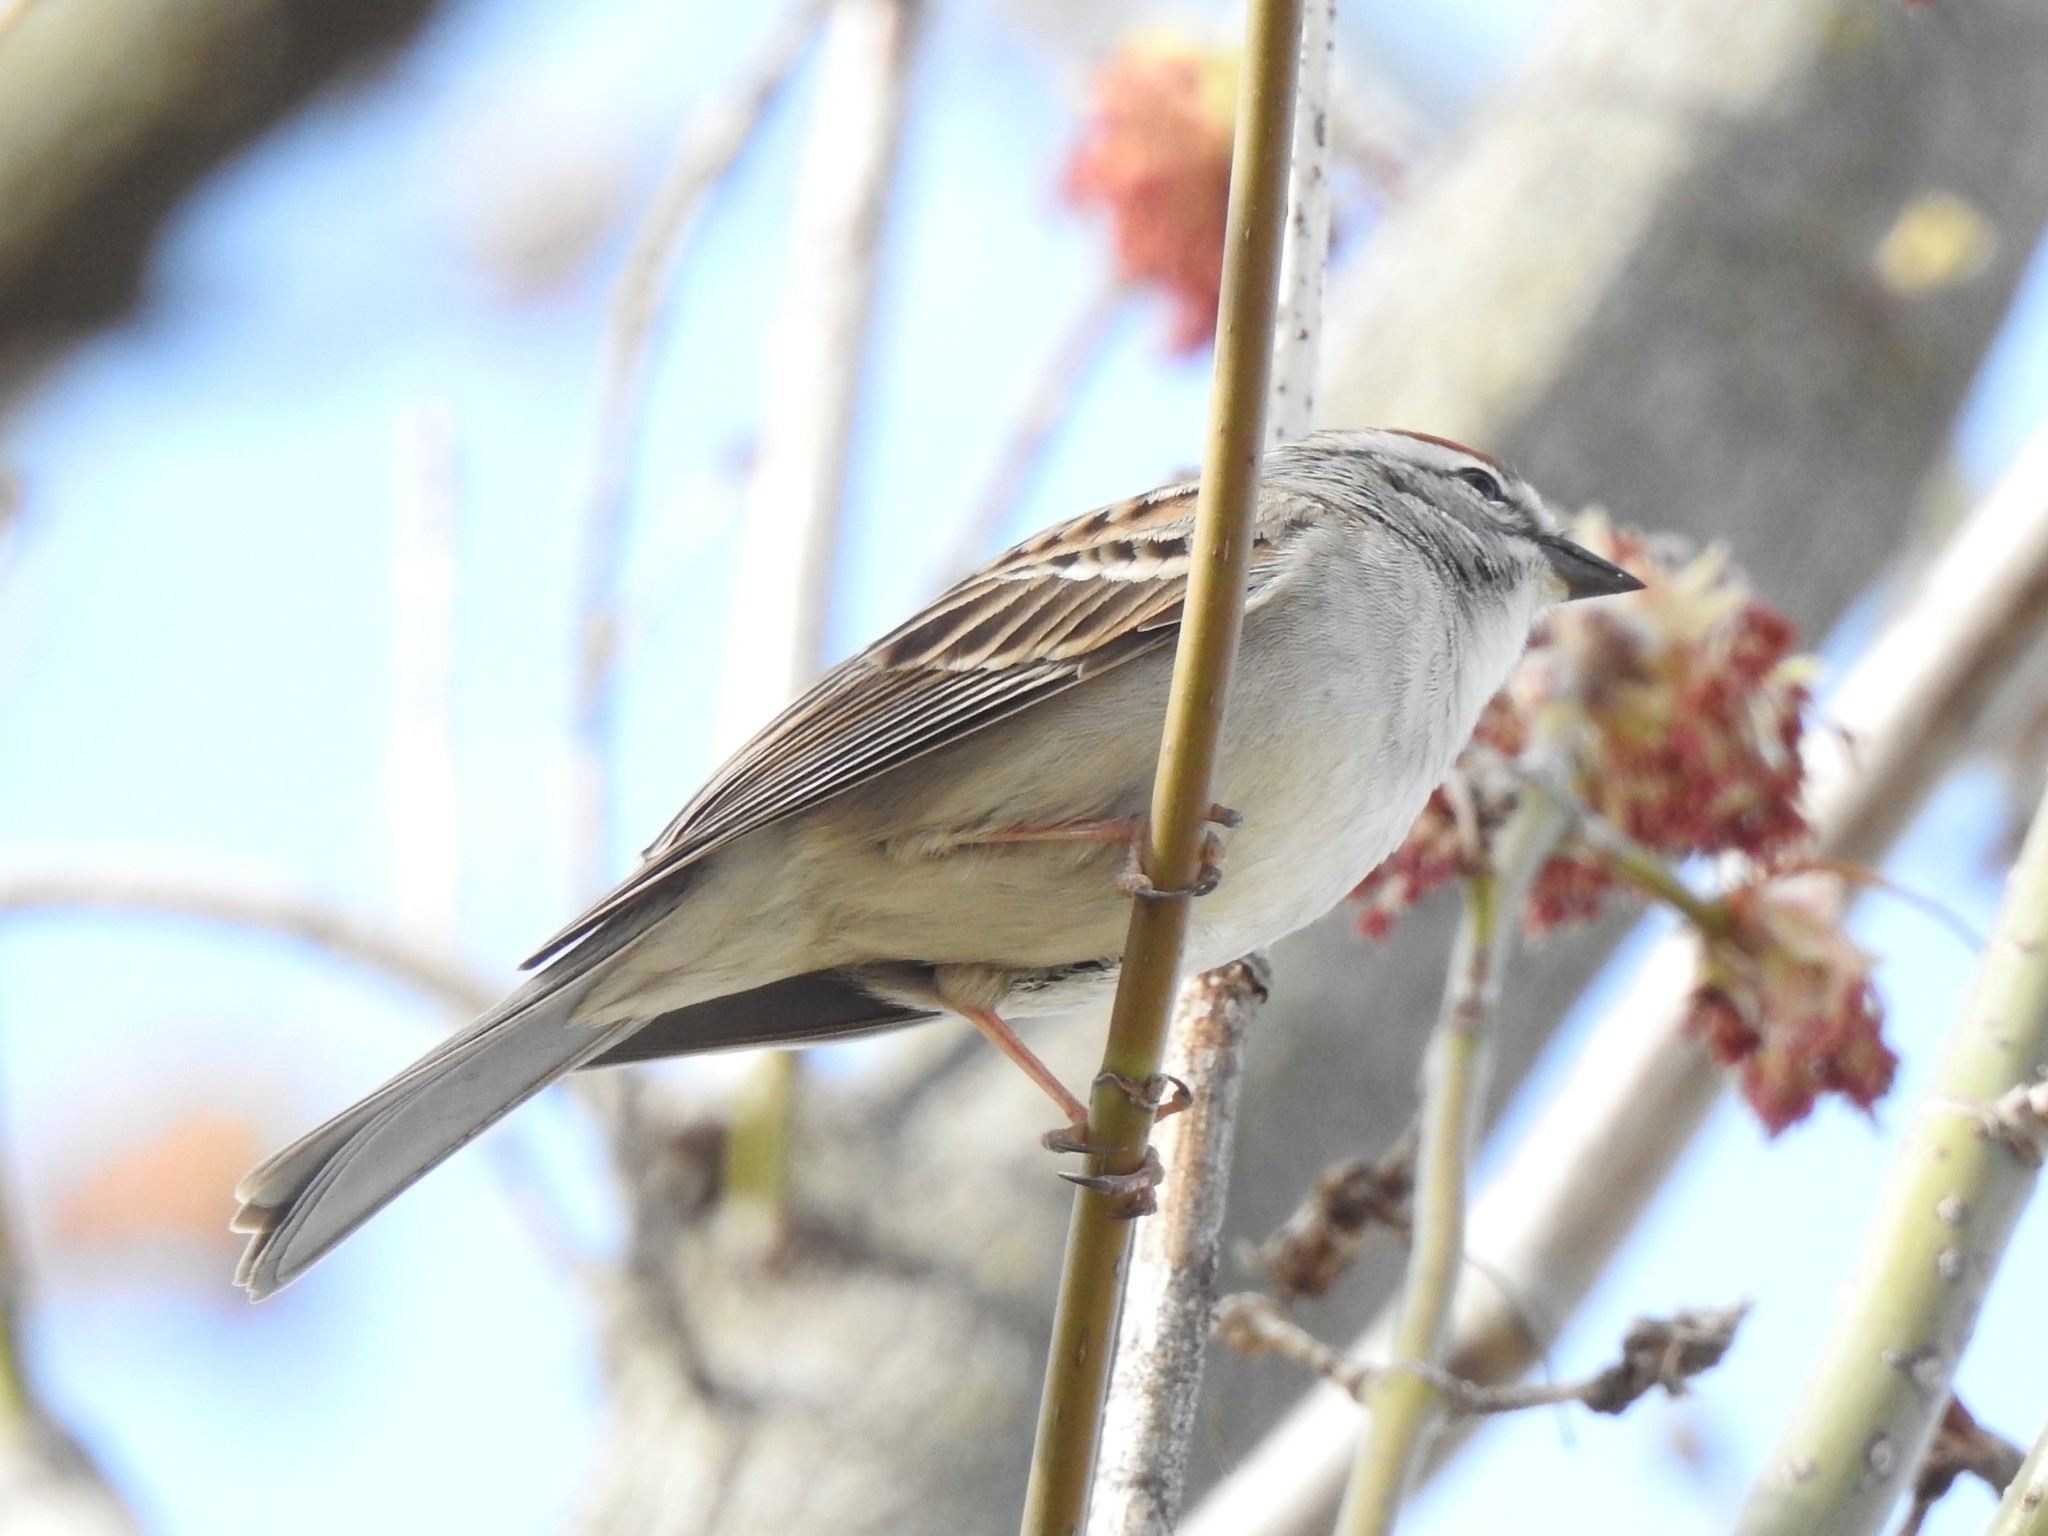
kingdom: Animalia
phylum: Chordata
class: Aves
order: Passeriformes
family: Passerellidae
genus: Spizella
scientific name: Spizella passerina
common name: Chipping sparrow
